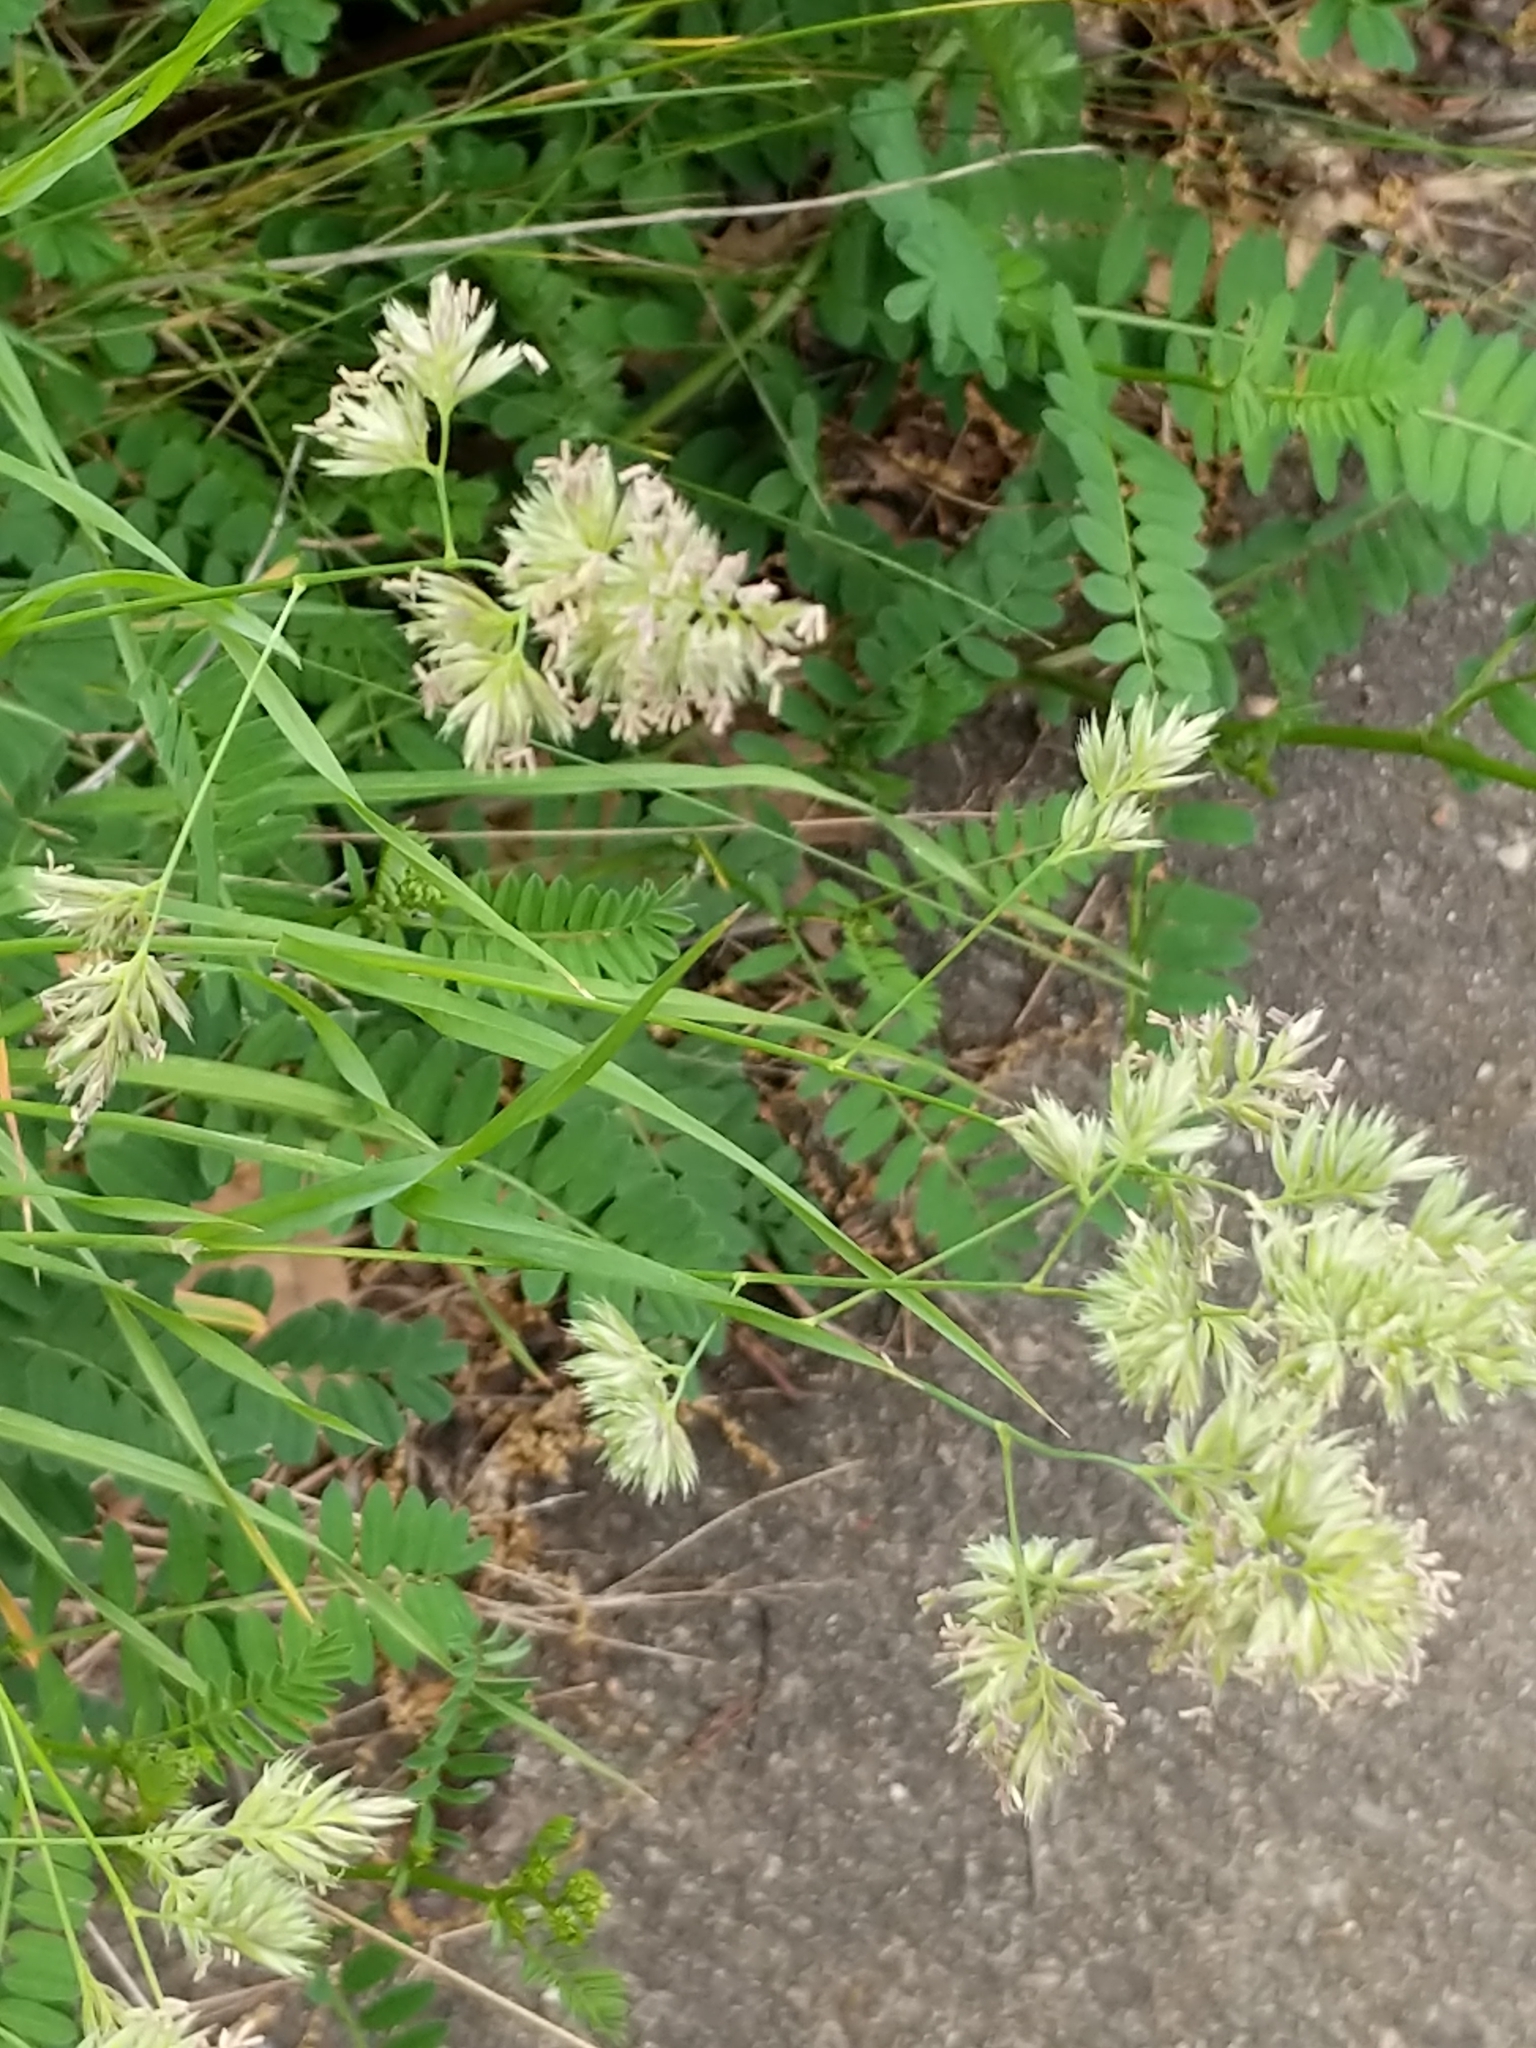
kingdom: Plantae
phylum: Tracheophyta
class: Liliopsida
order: Poales
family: Poaceae
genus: Dactylis
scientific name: Dactylis glomerata
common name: Orchardgrass
